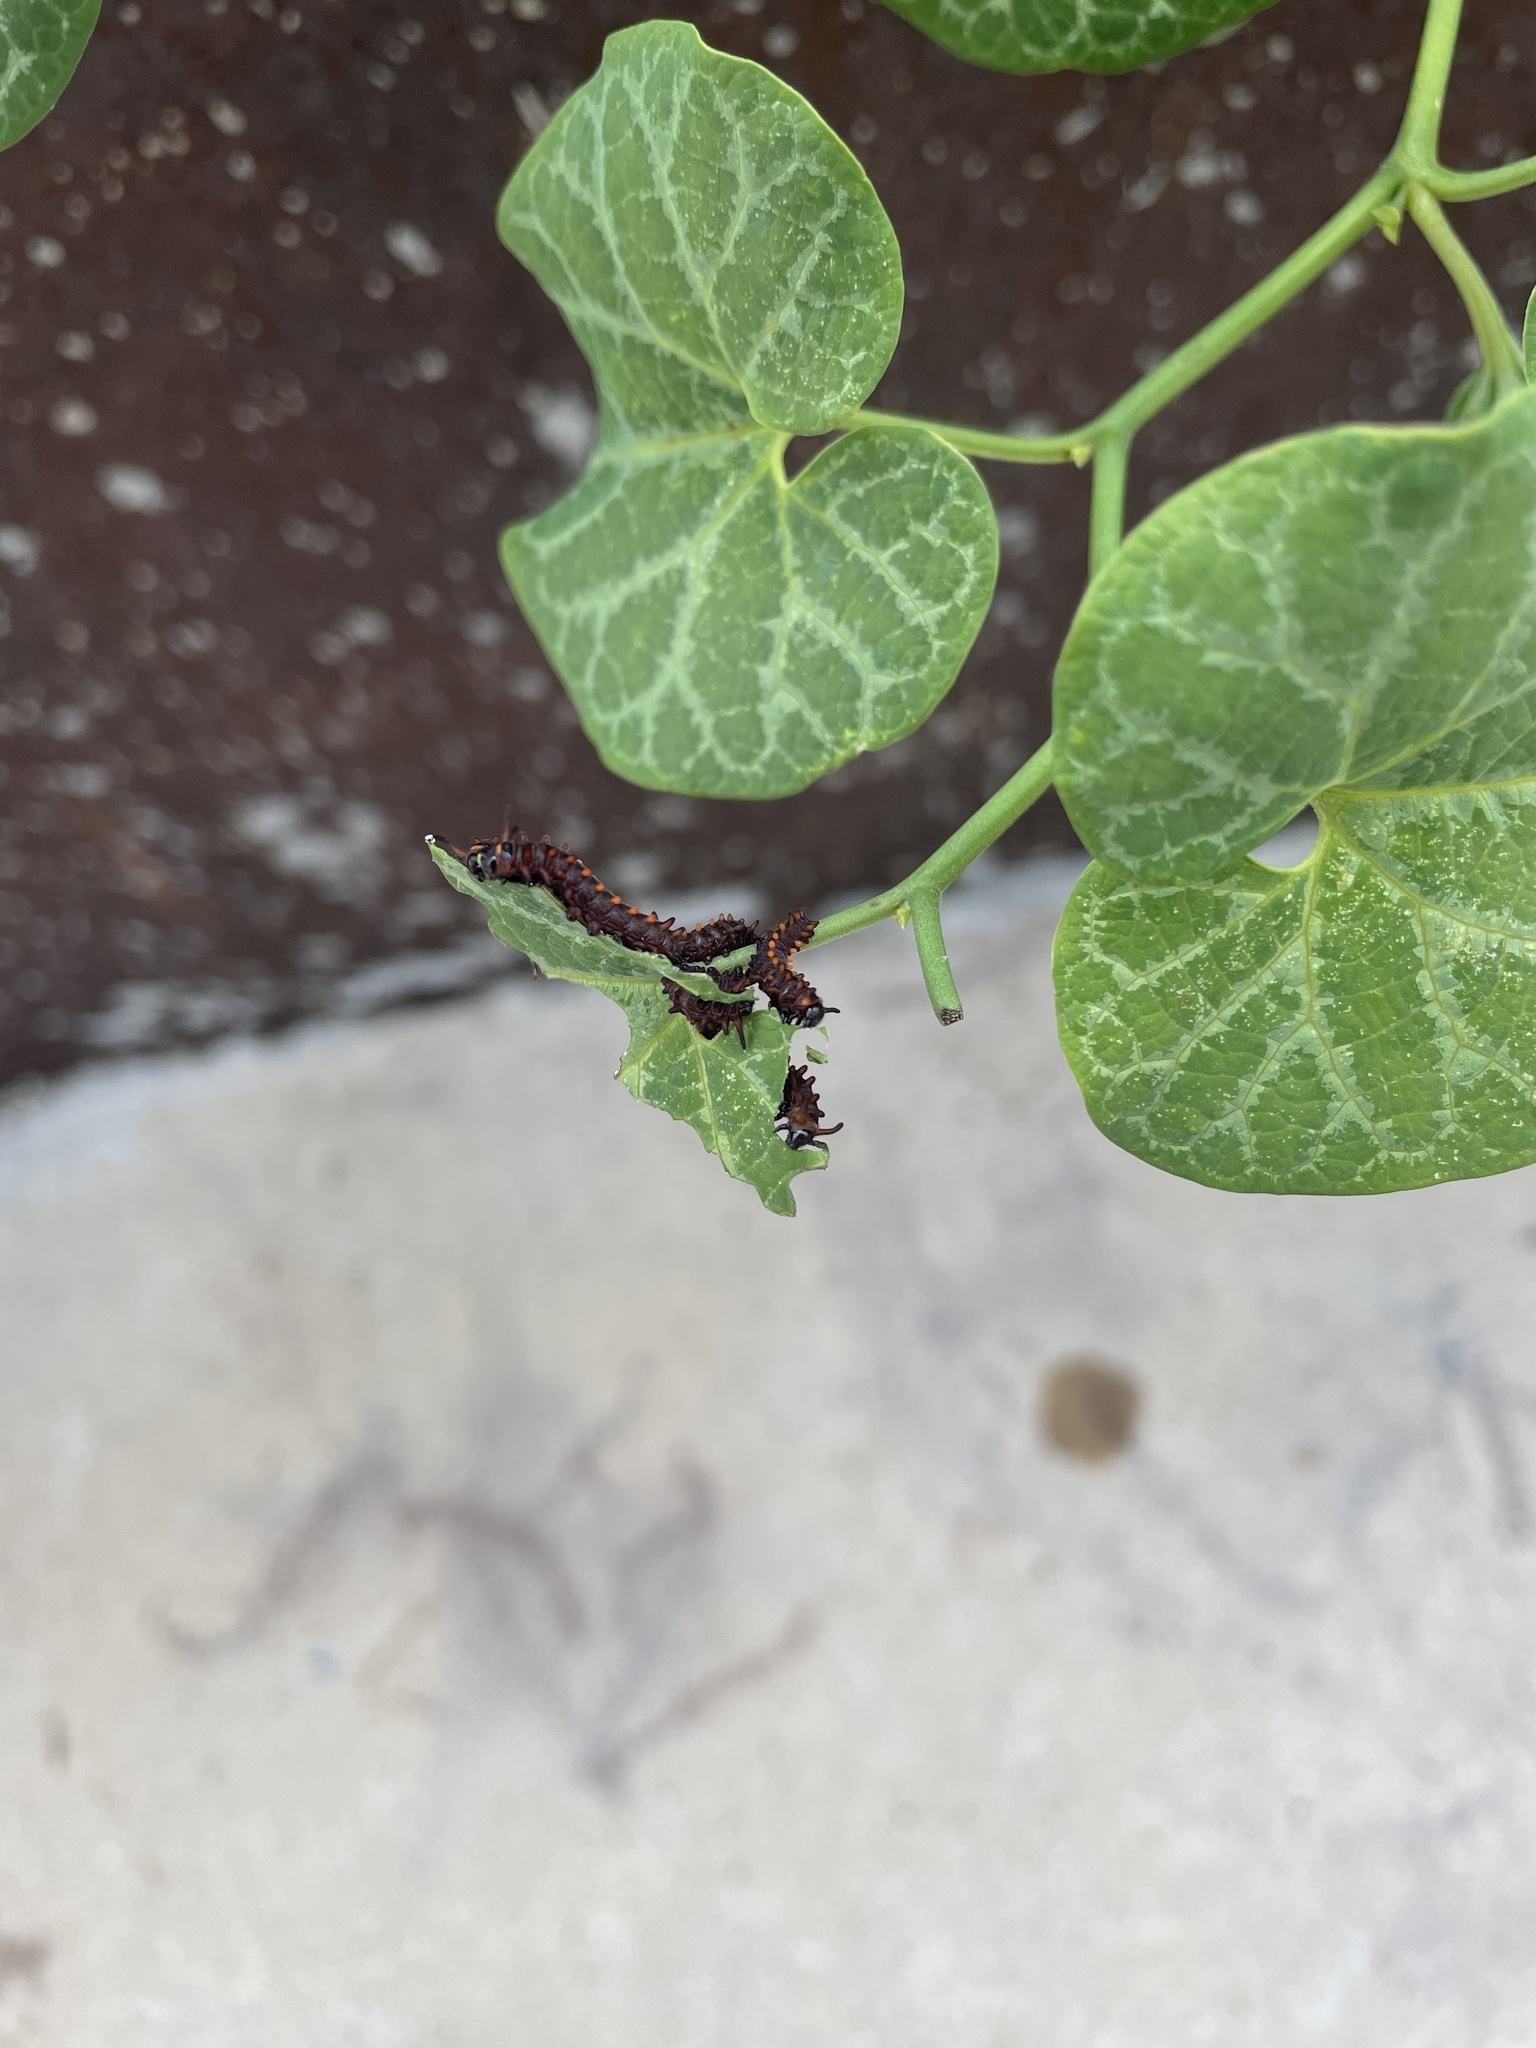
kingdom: Animalia
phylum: Arthropoda
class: Insecta
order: Lepidoptera
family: Papilionidae
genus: Battus
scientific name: Battus philenor
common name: Pipevine swallowtail
